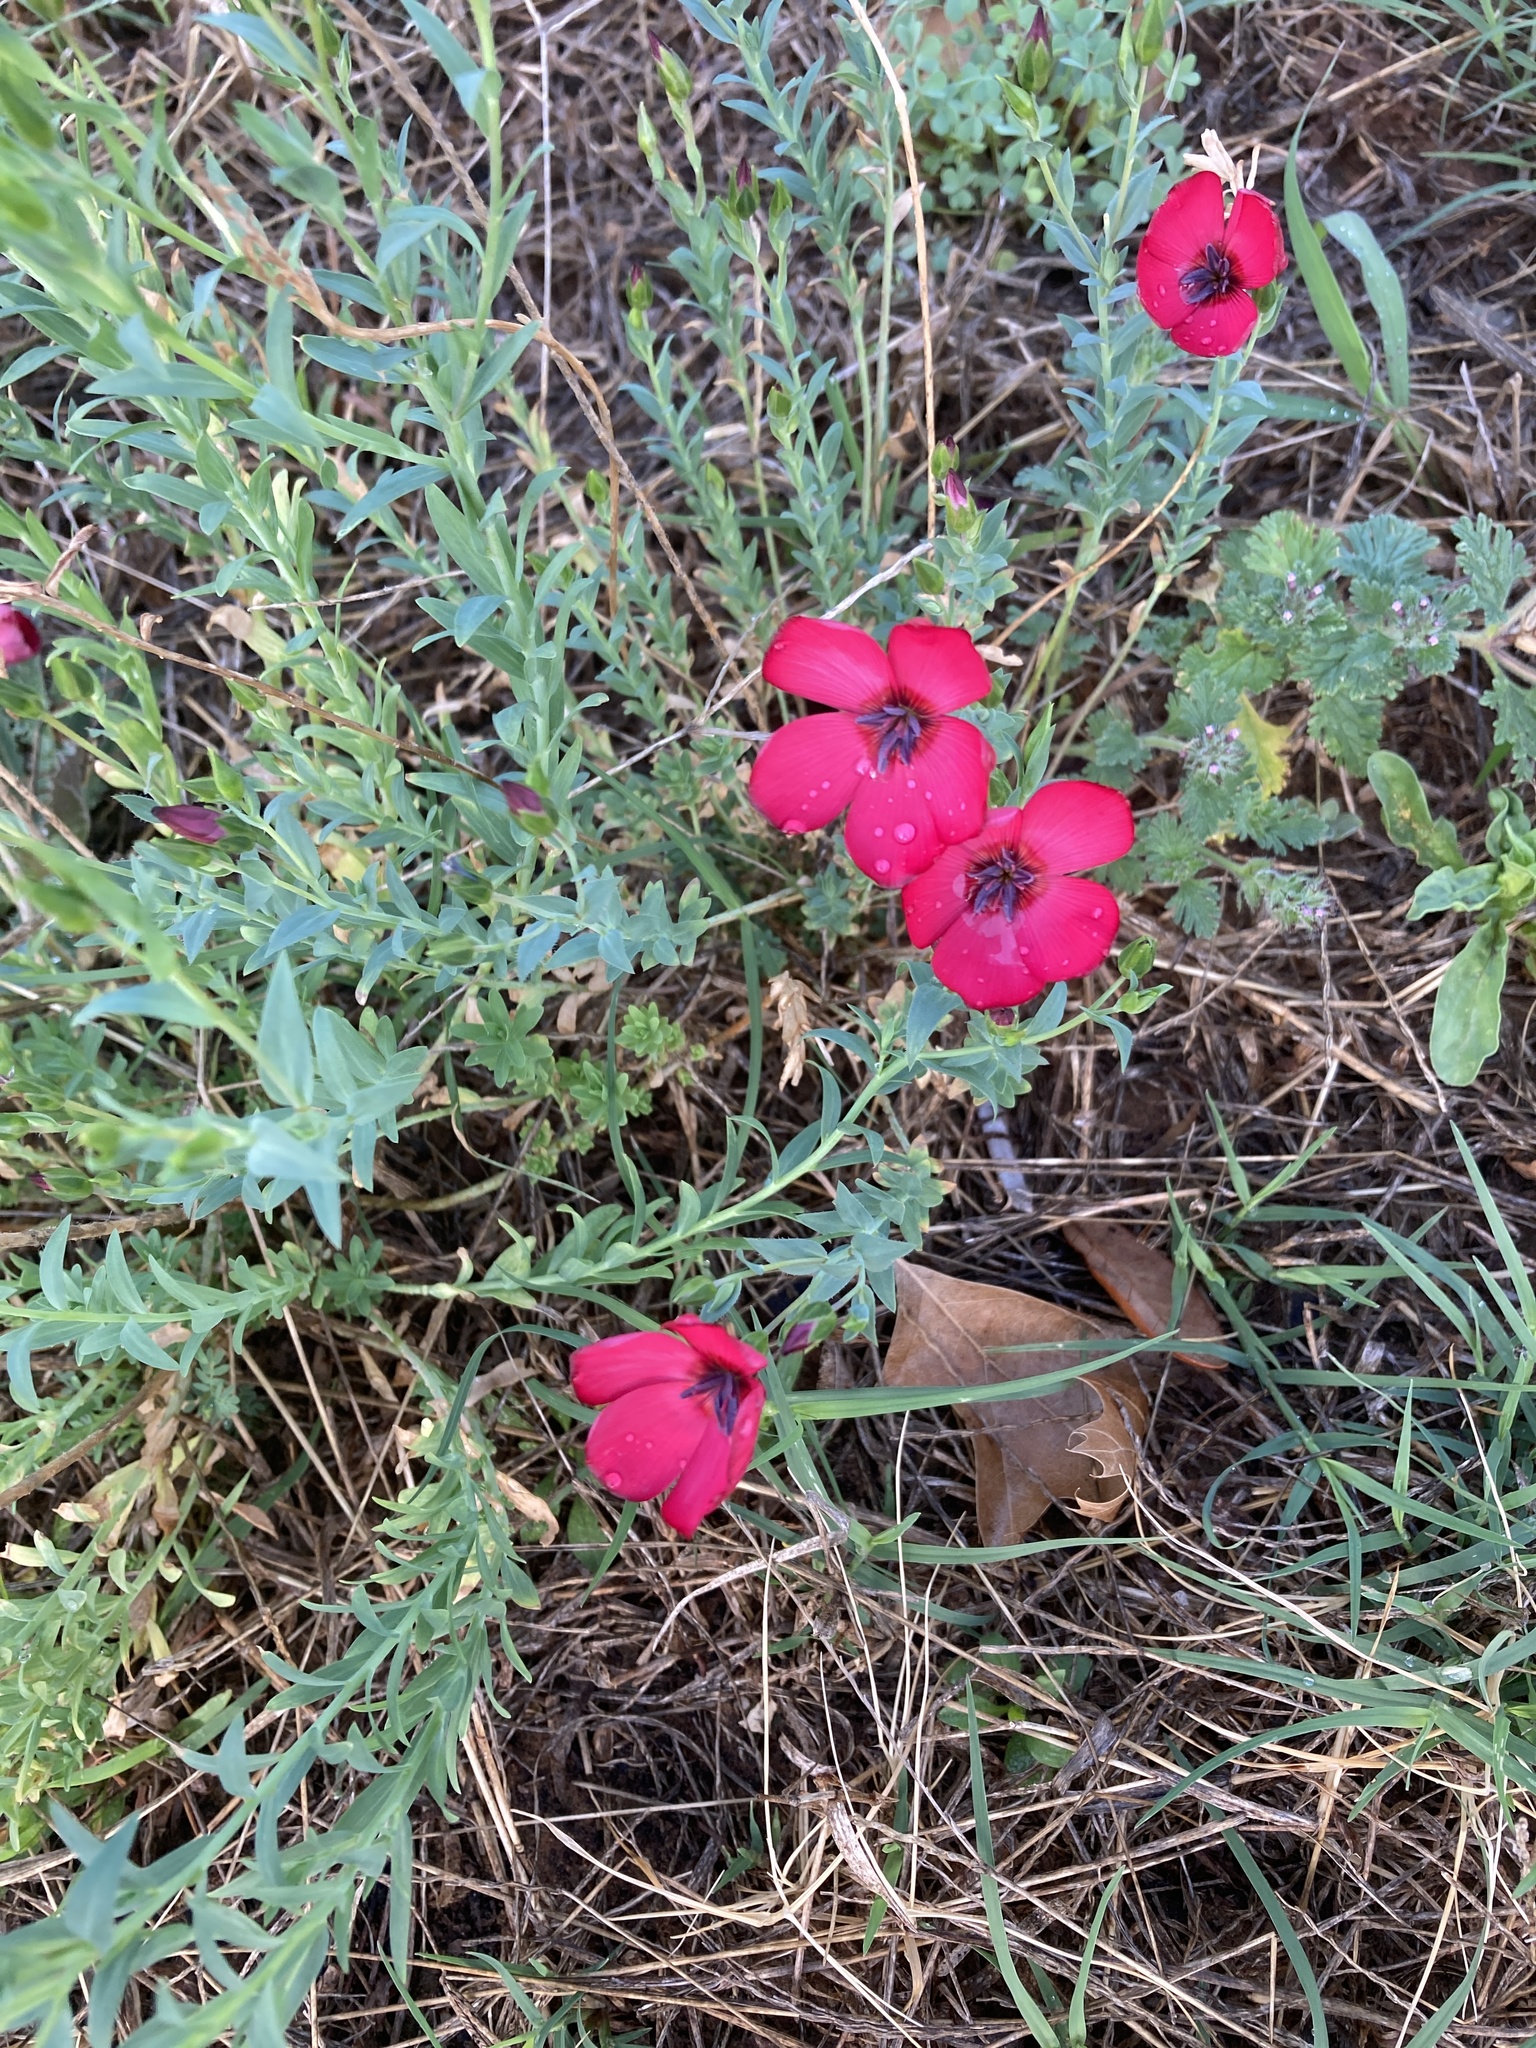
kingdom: Plantae
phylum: Tracheophyta
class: Magnoliopsida
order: Malpighiales
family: Linaceae
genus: Linum
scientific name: Linum grandiflorum
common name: Crimson flax
